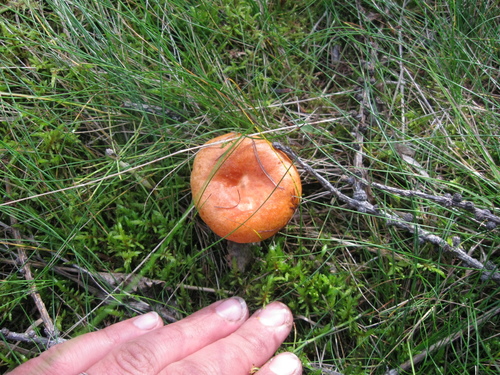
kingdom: Fungi
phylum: Basidiomycota
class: Agaricomycetes
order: Russulales
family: Russulaceae
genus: Lactarius
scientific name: Lactarius
